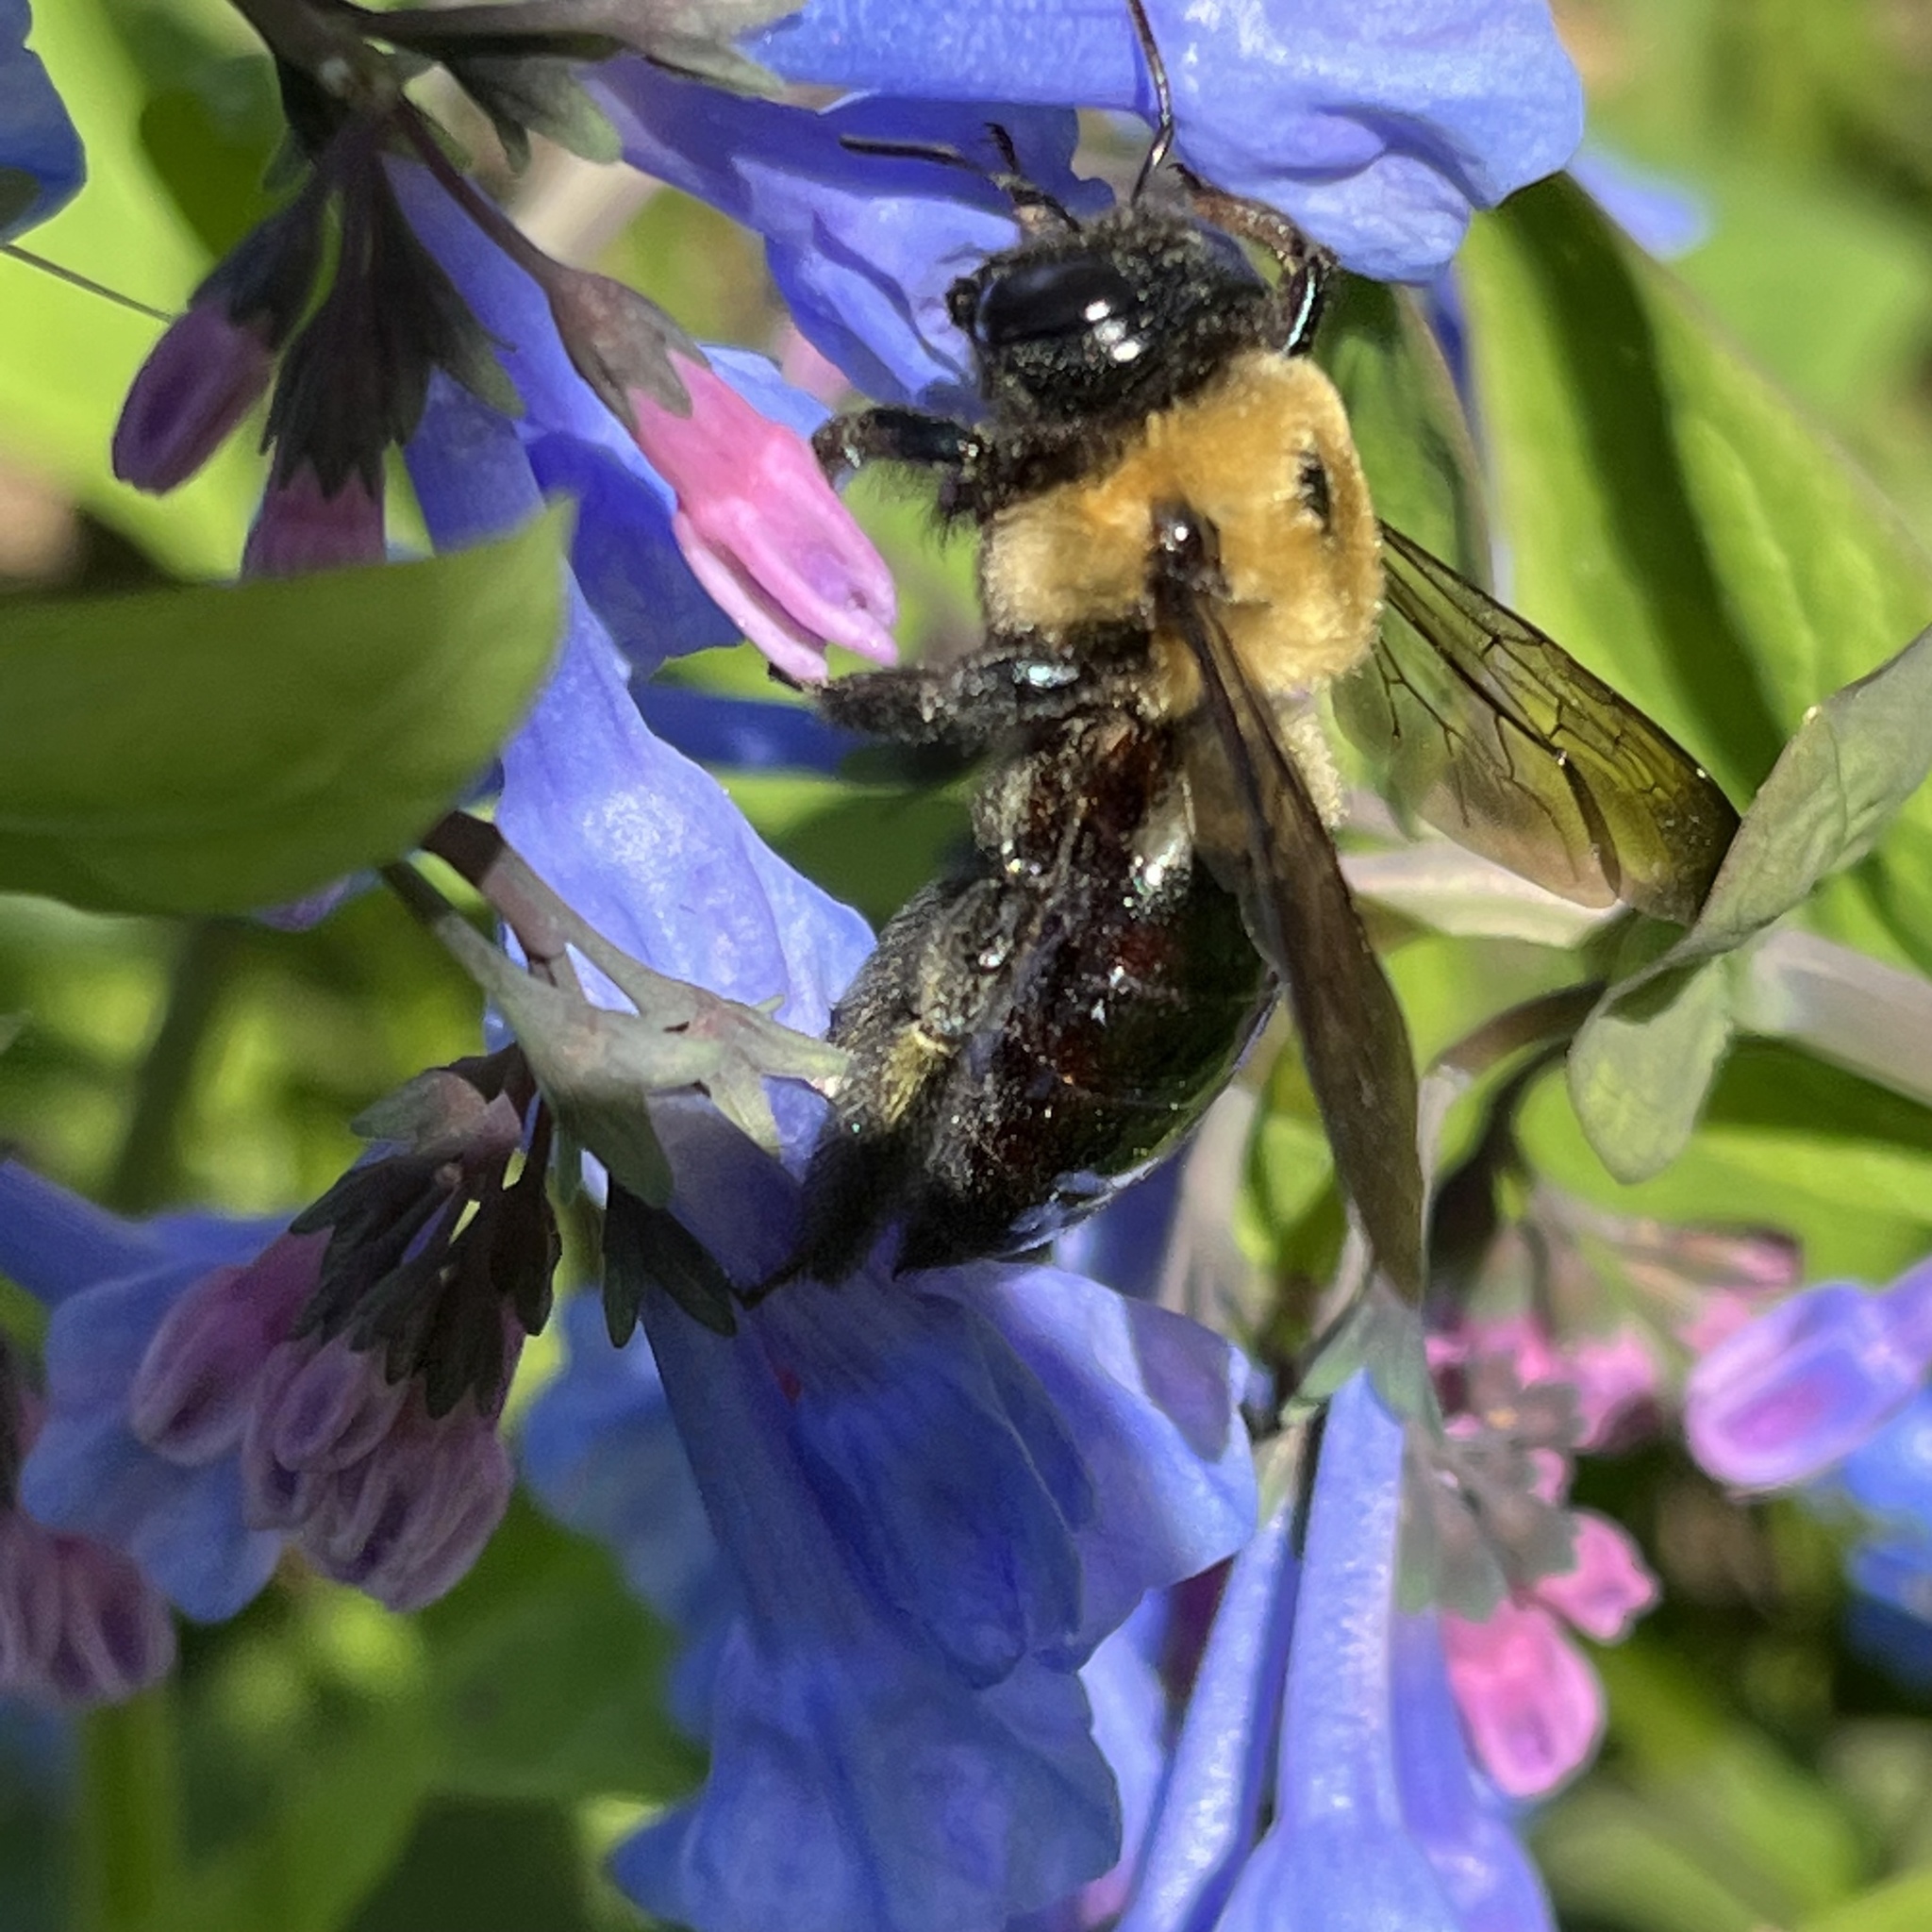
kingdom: Animalia
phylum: Arthropoda
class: Insecta
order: Hymenoptera
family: Apidae
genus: Xylocopa
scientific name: Xylocopa virginica
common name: Carpenter bee
